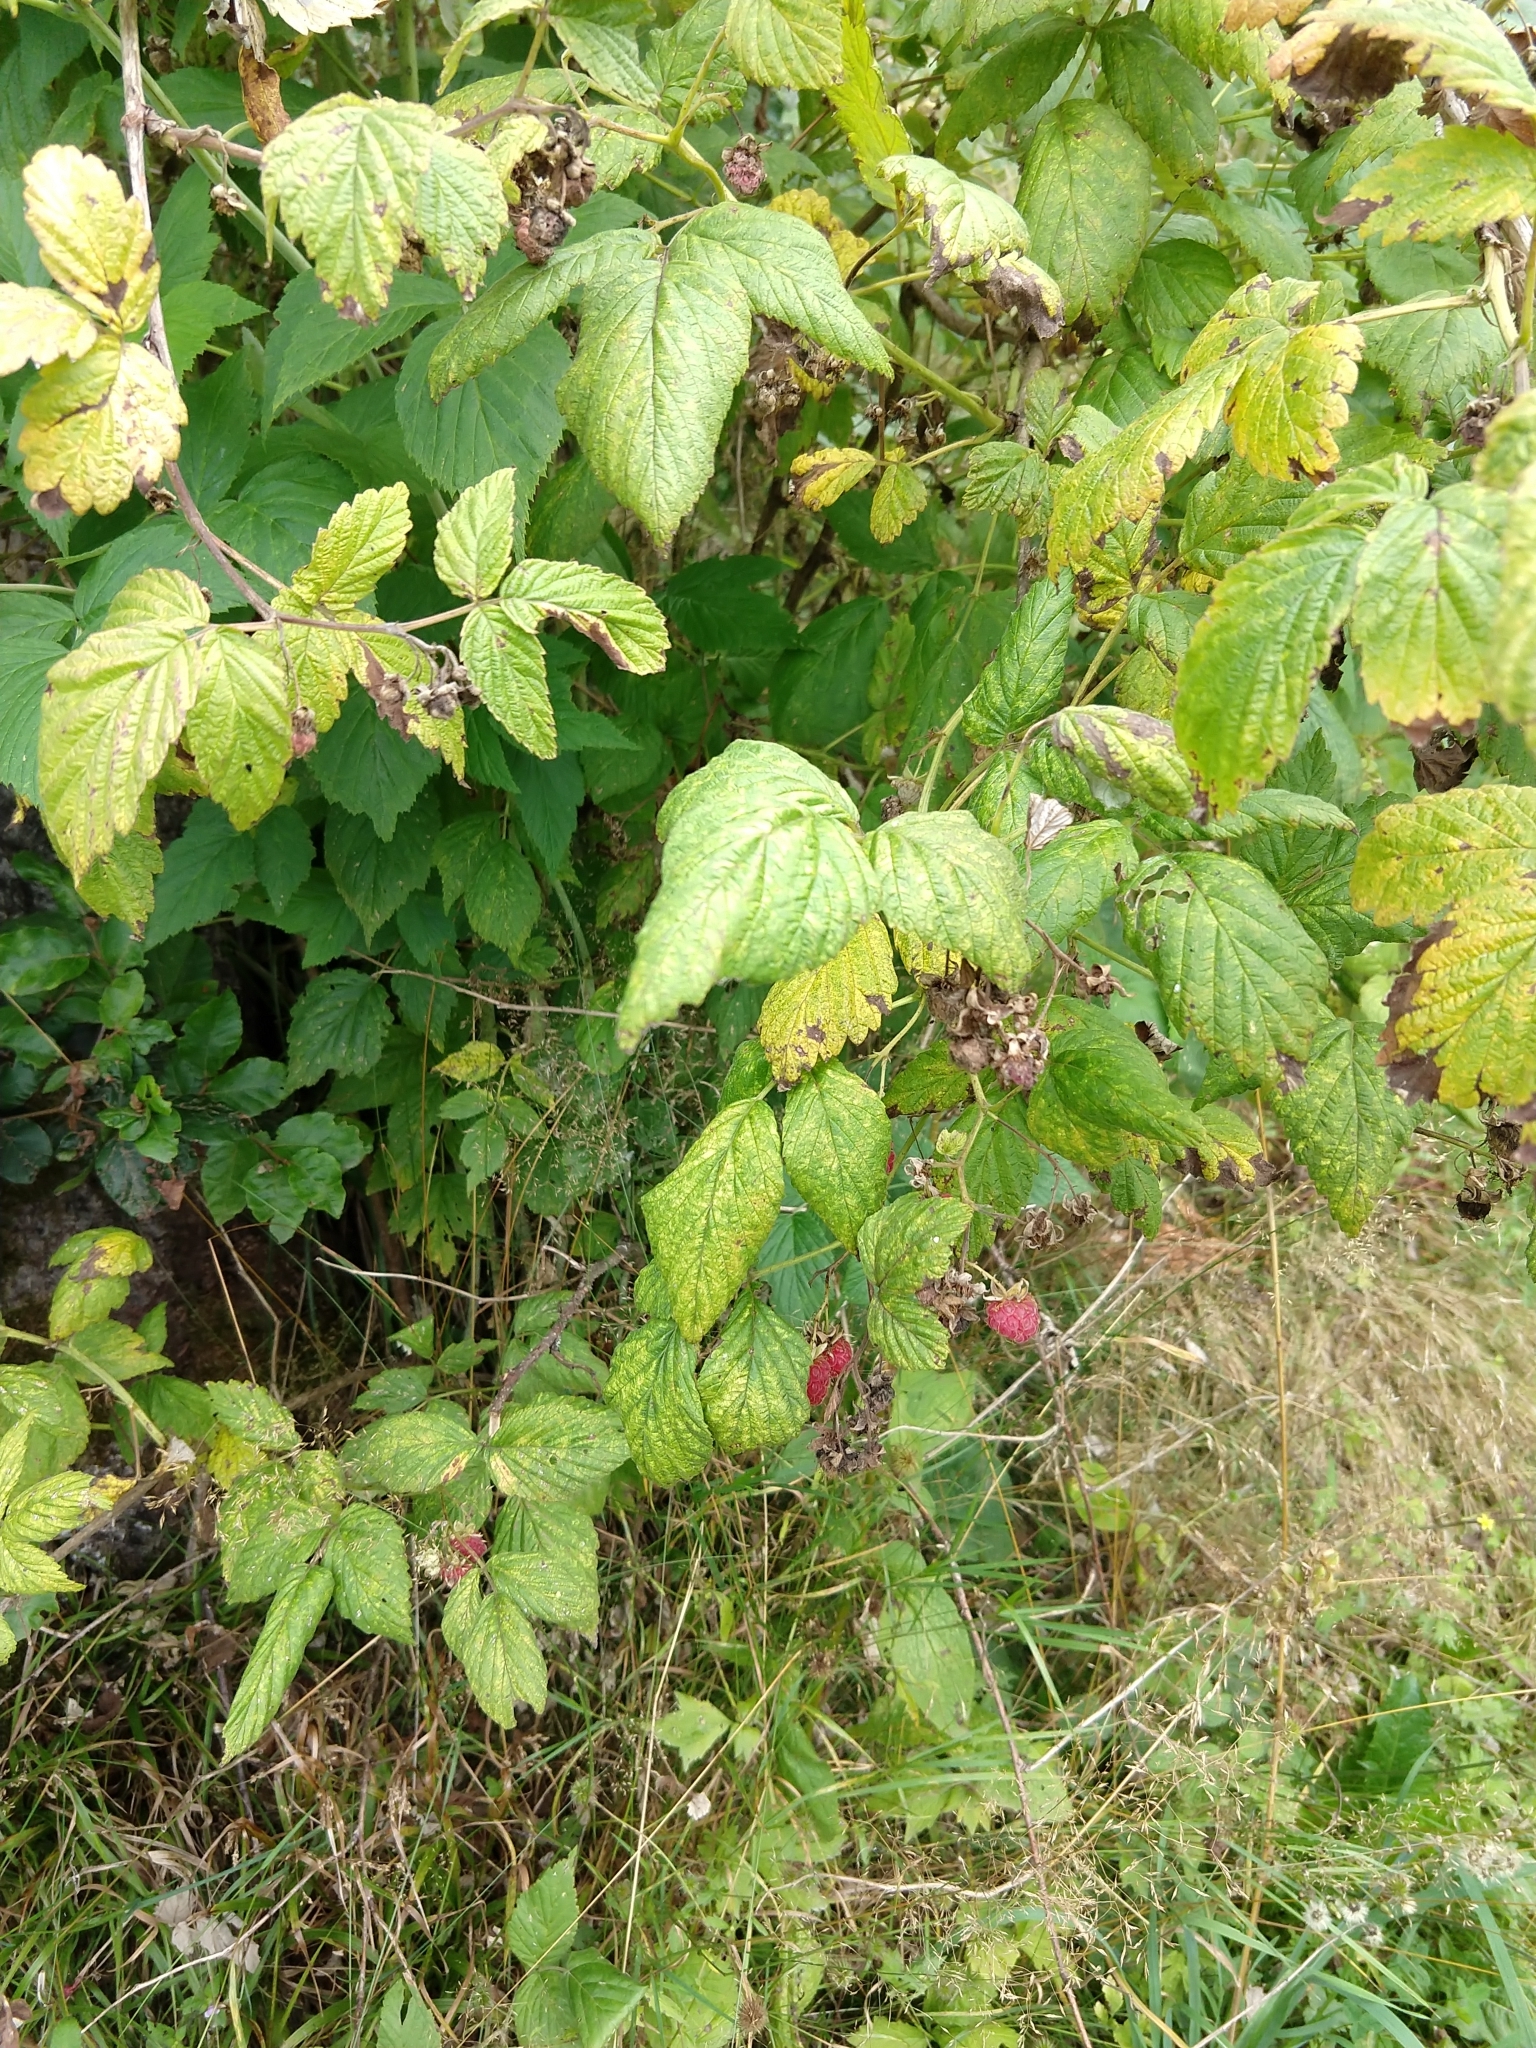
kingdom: Plantae
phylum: Tracheophyta
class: Magnoliopsida
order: Rosales
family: Rosaceae
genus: Rubus
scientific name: Rubus idaeus
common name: Raspberry
